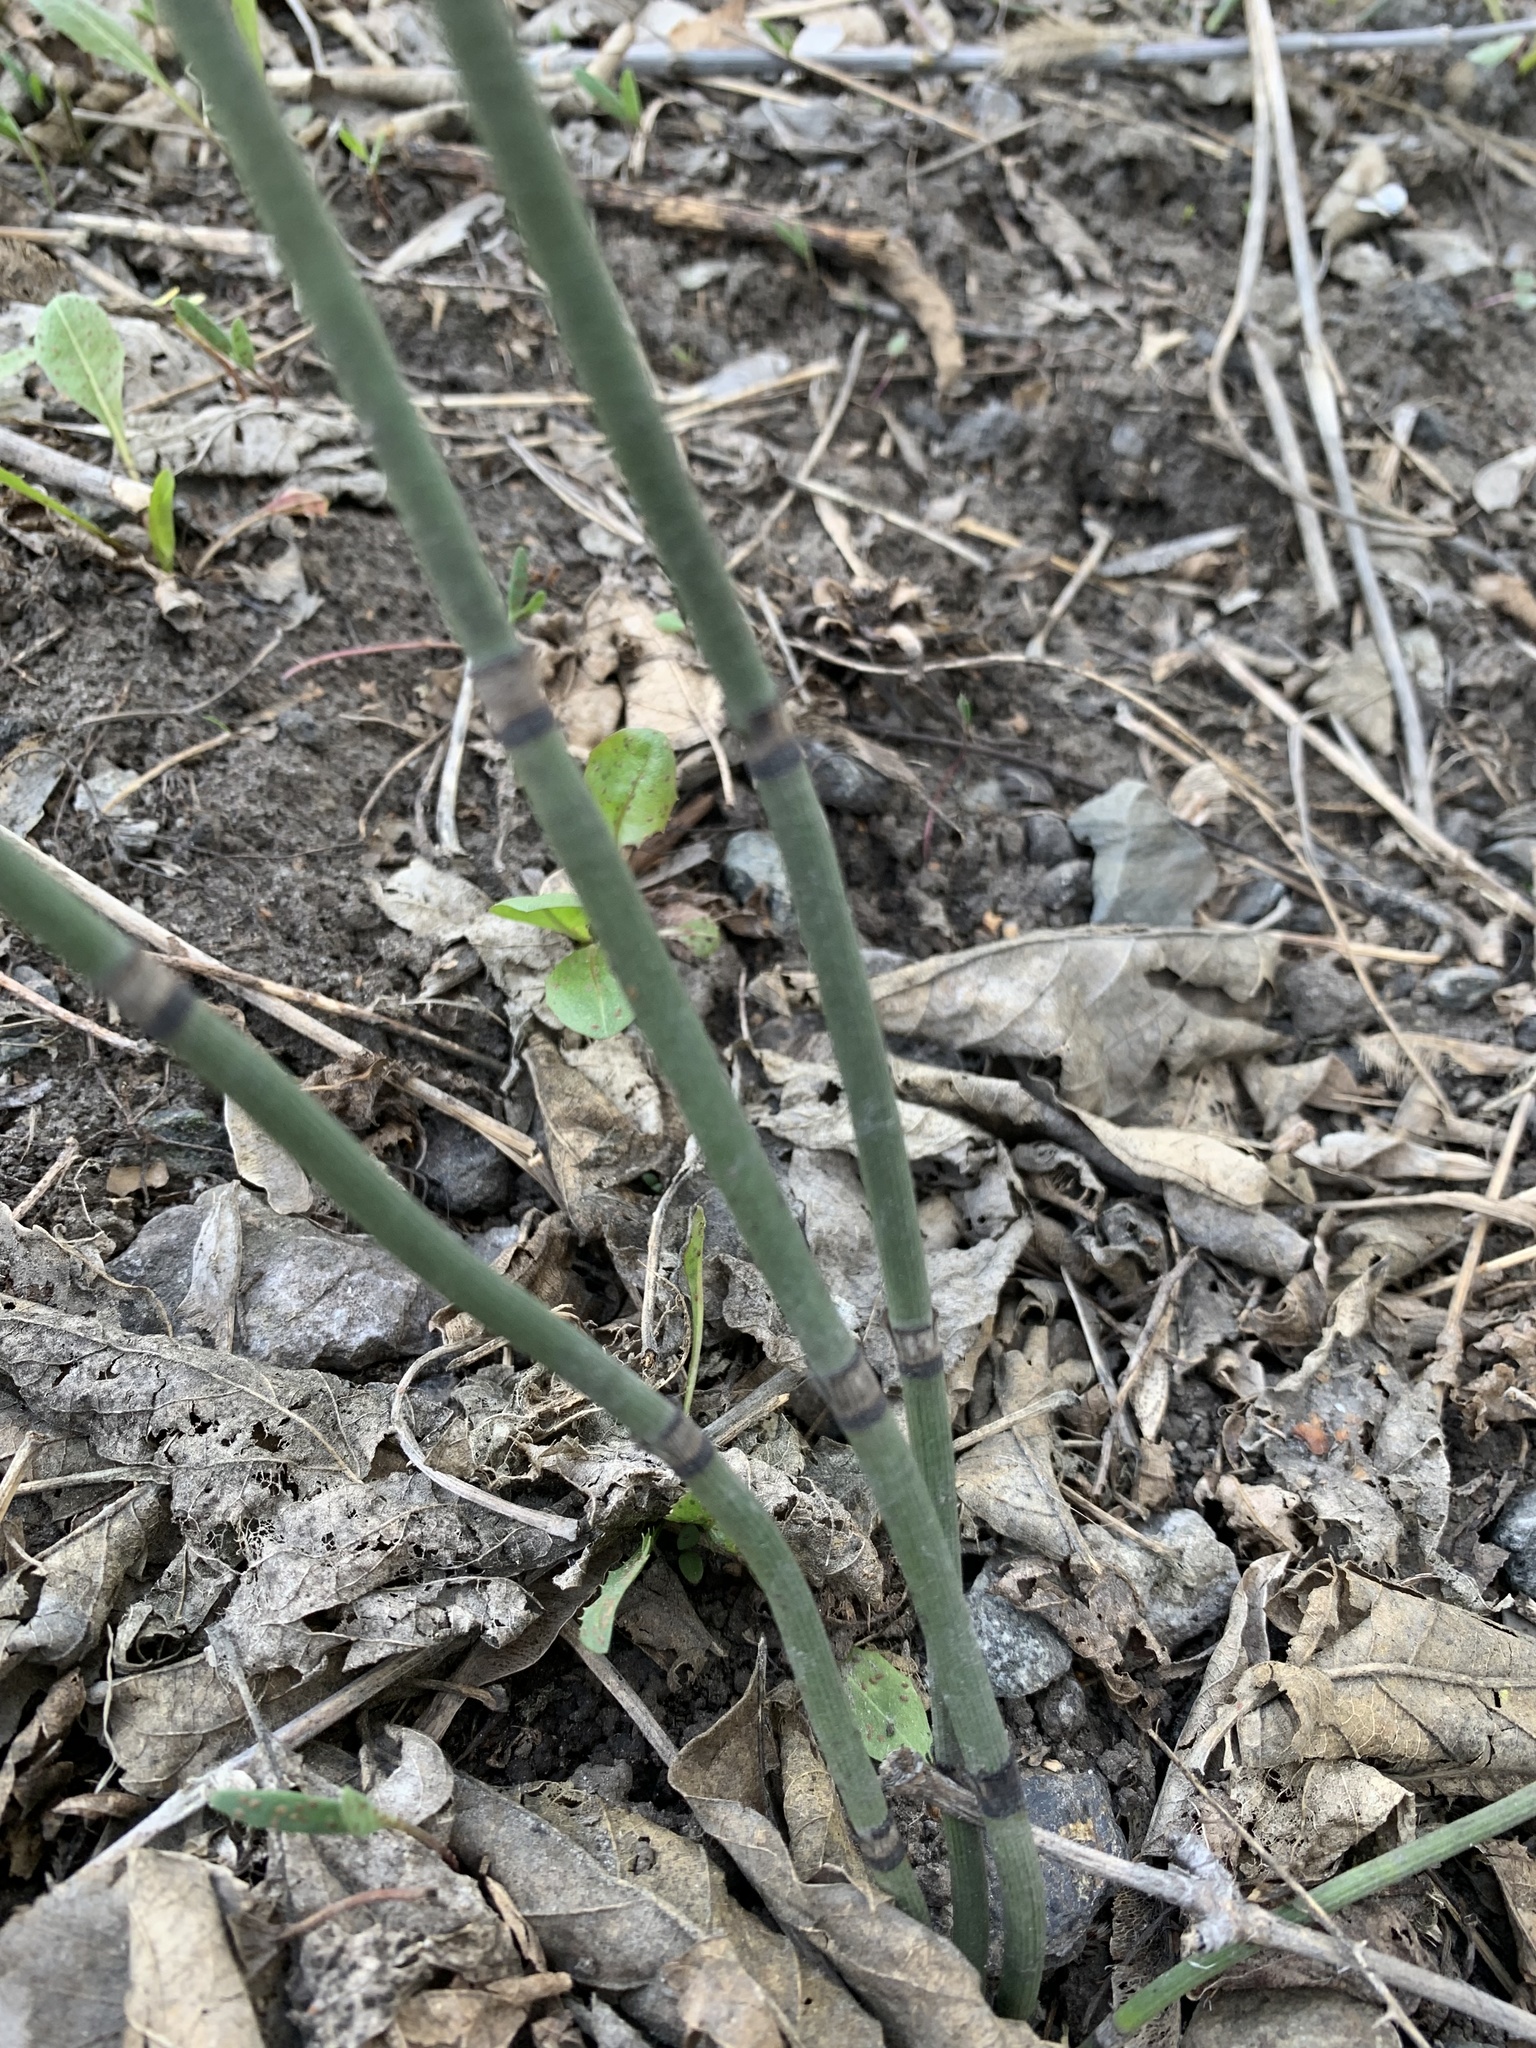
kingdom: Plantae
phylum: Tracheophyta
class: Polypodiopsida
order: Equisetales
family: Equisetaceae
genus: Equisetum
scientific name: Equisetum hyemale
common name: Rough horsetail
